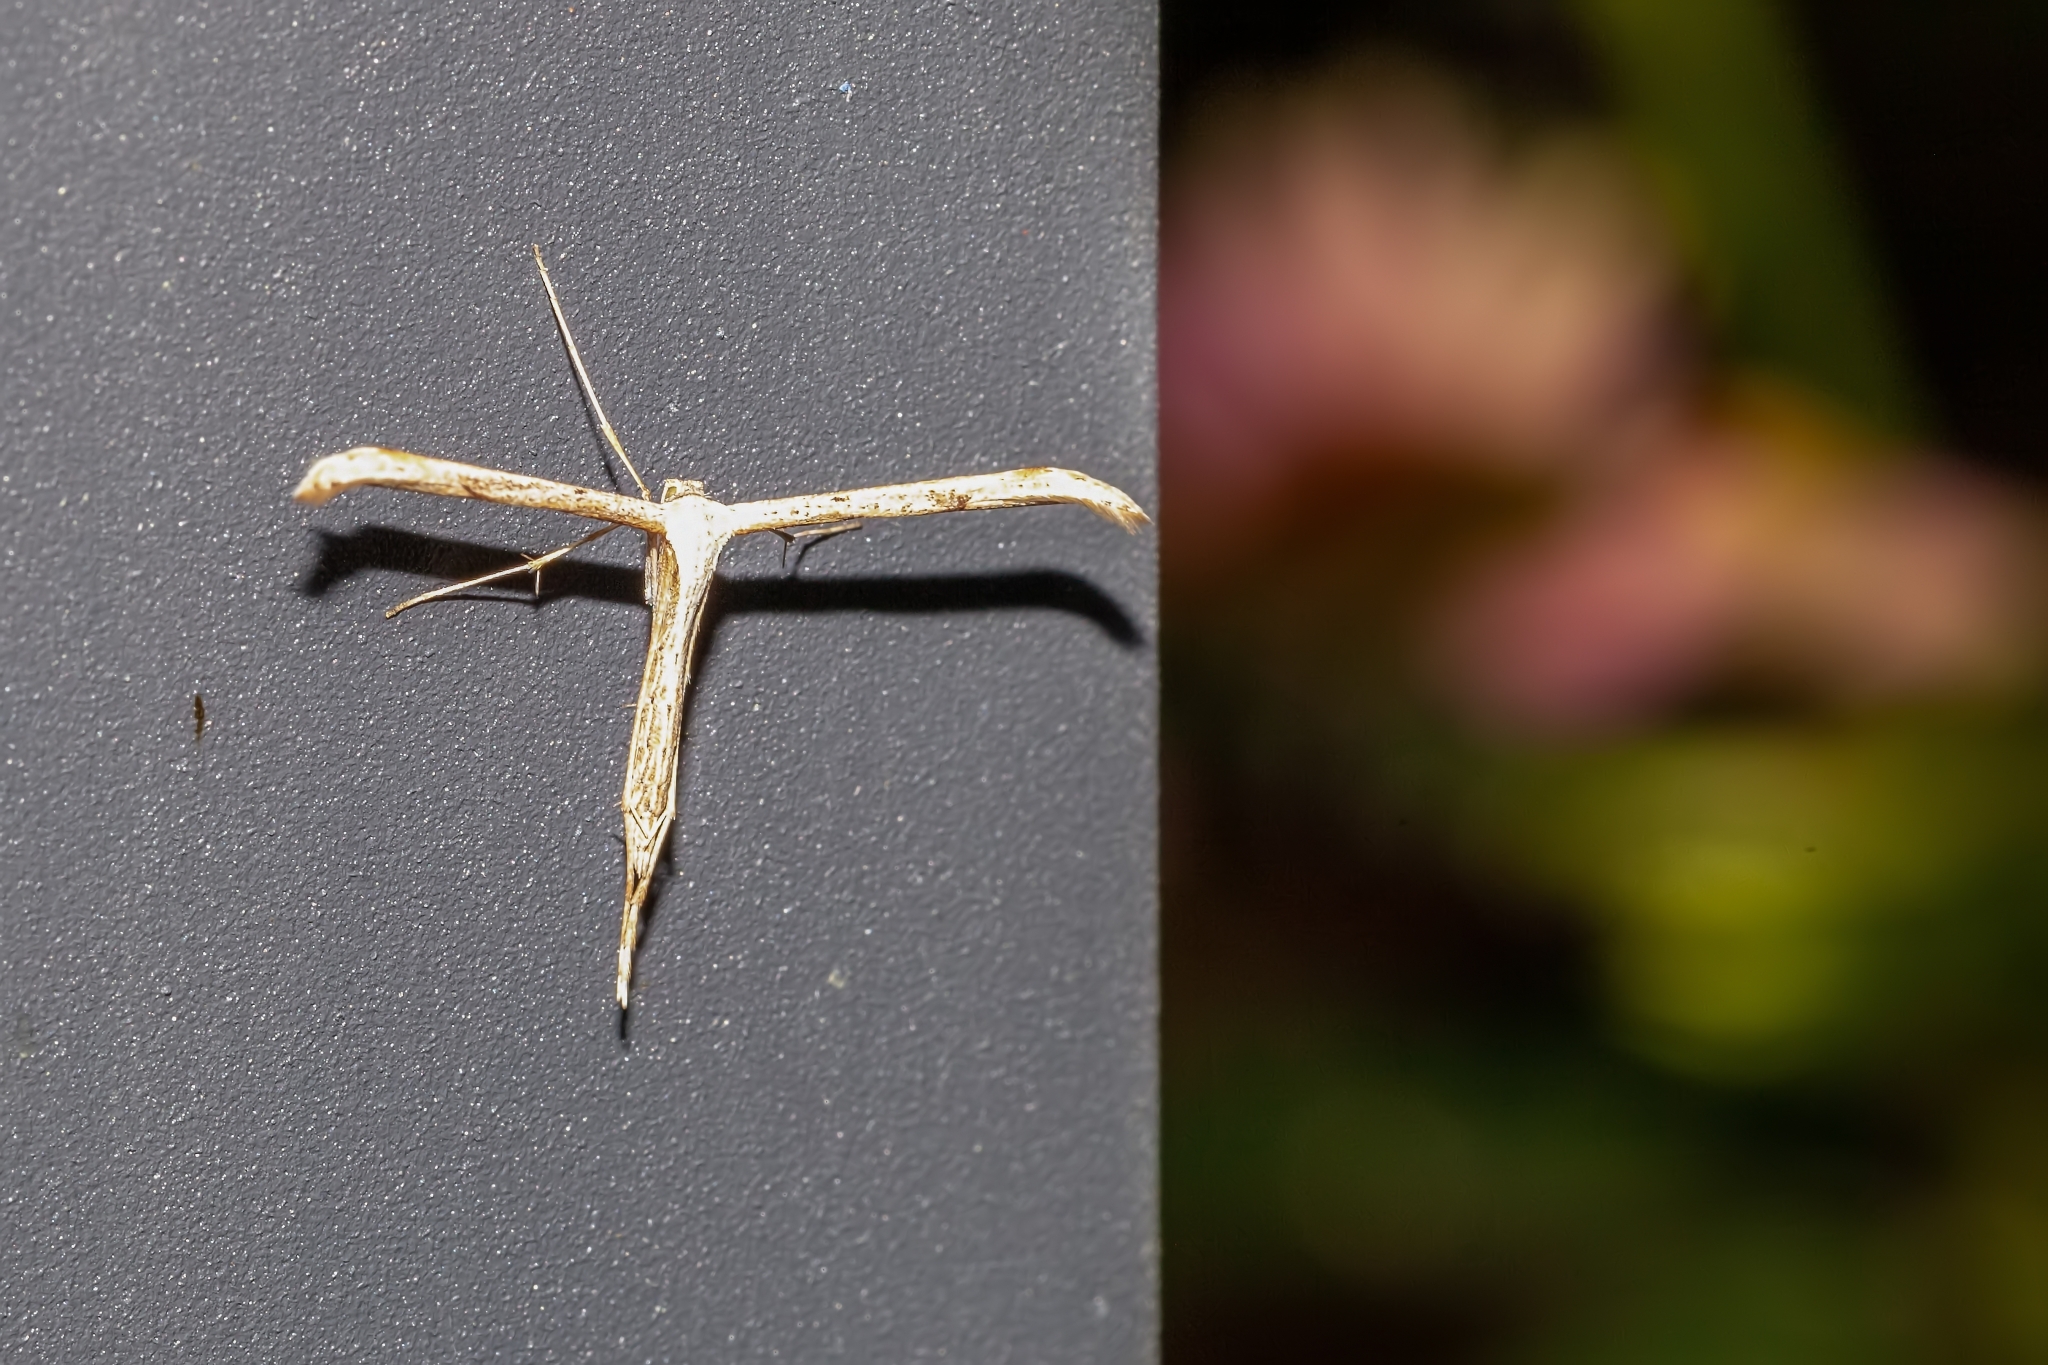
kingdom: Animalia
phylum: Arthropoda
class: Insecta
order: Lepidoptera
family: Pterophoridae
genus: Emmelina
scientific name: Emmelina monodactyla
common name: Common plume
